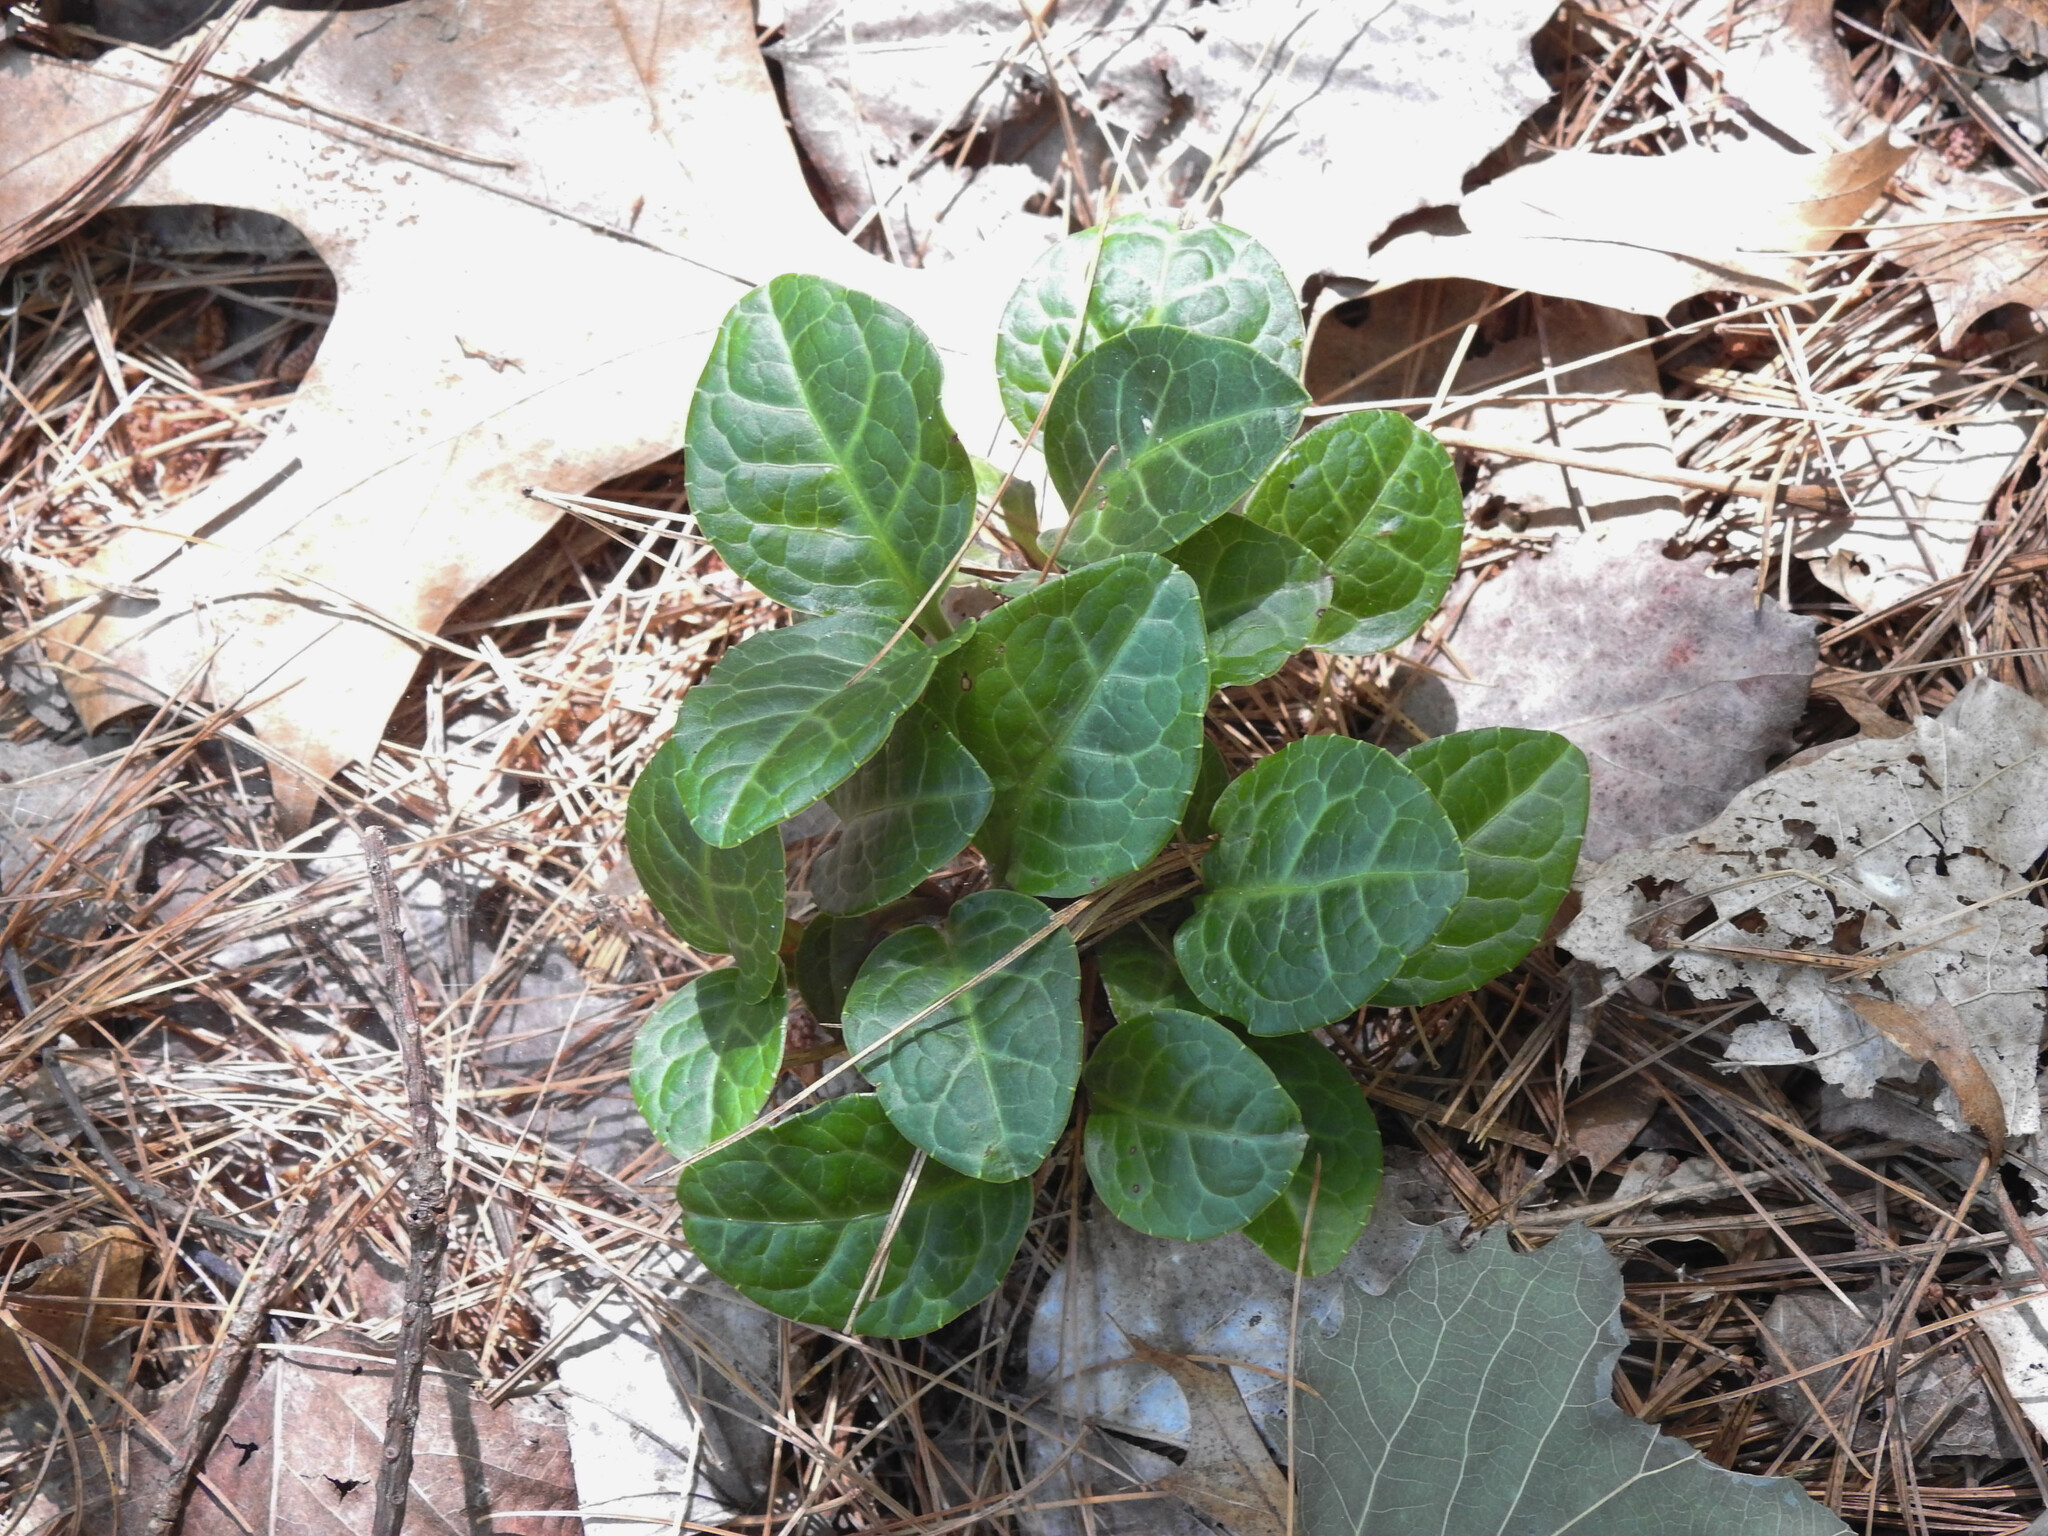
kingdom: Plantae
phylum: Tracheophyta
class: Magnoliopsida
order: Ericales
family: Ericaceae
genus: Pyrola
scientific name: Pyrola americana
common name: American wintergreen
